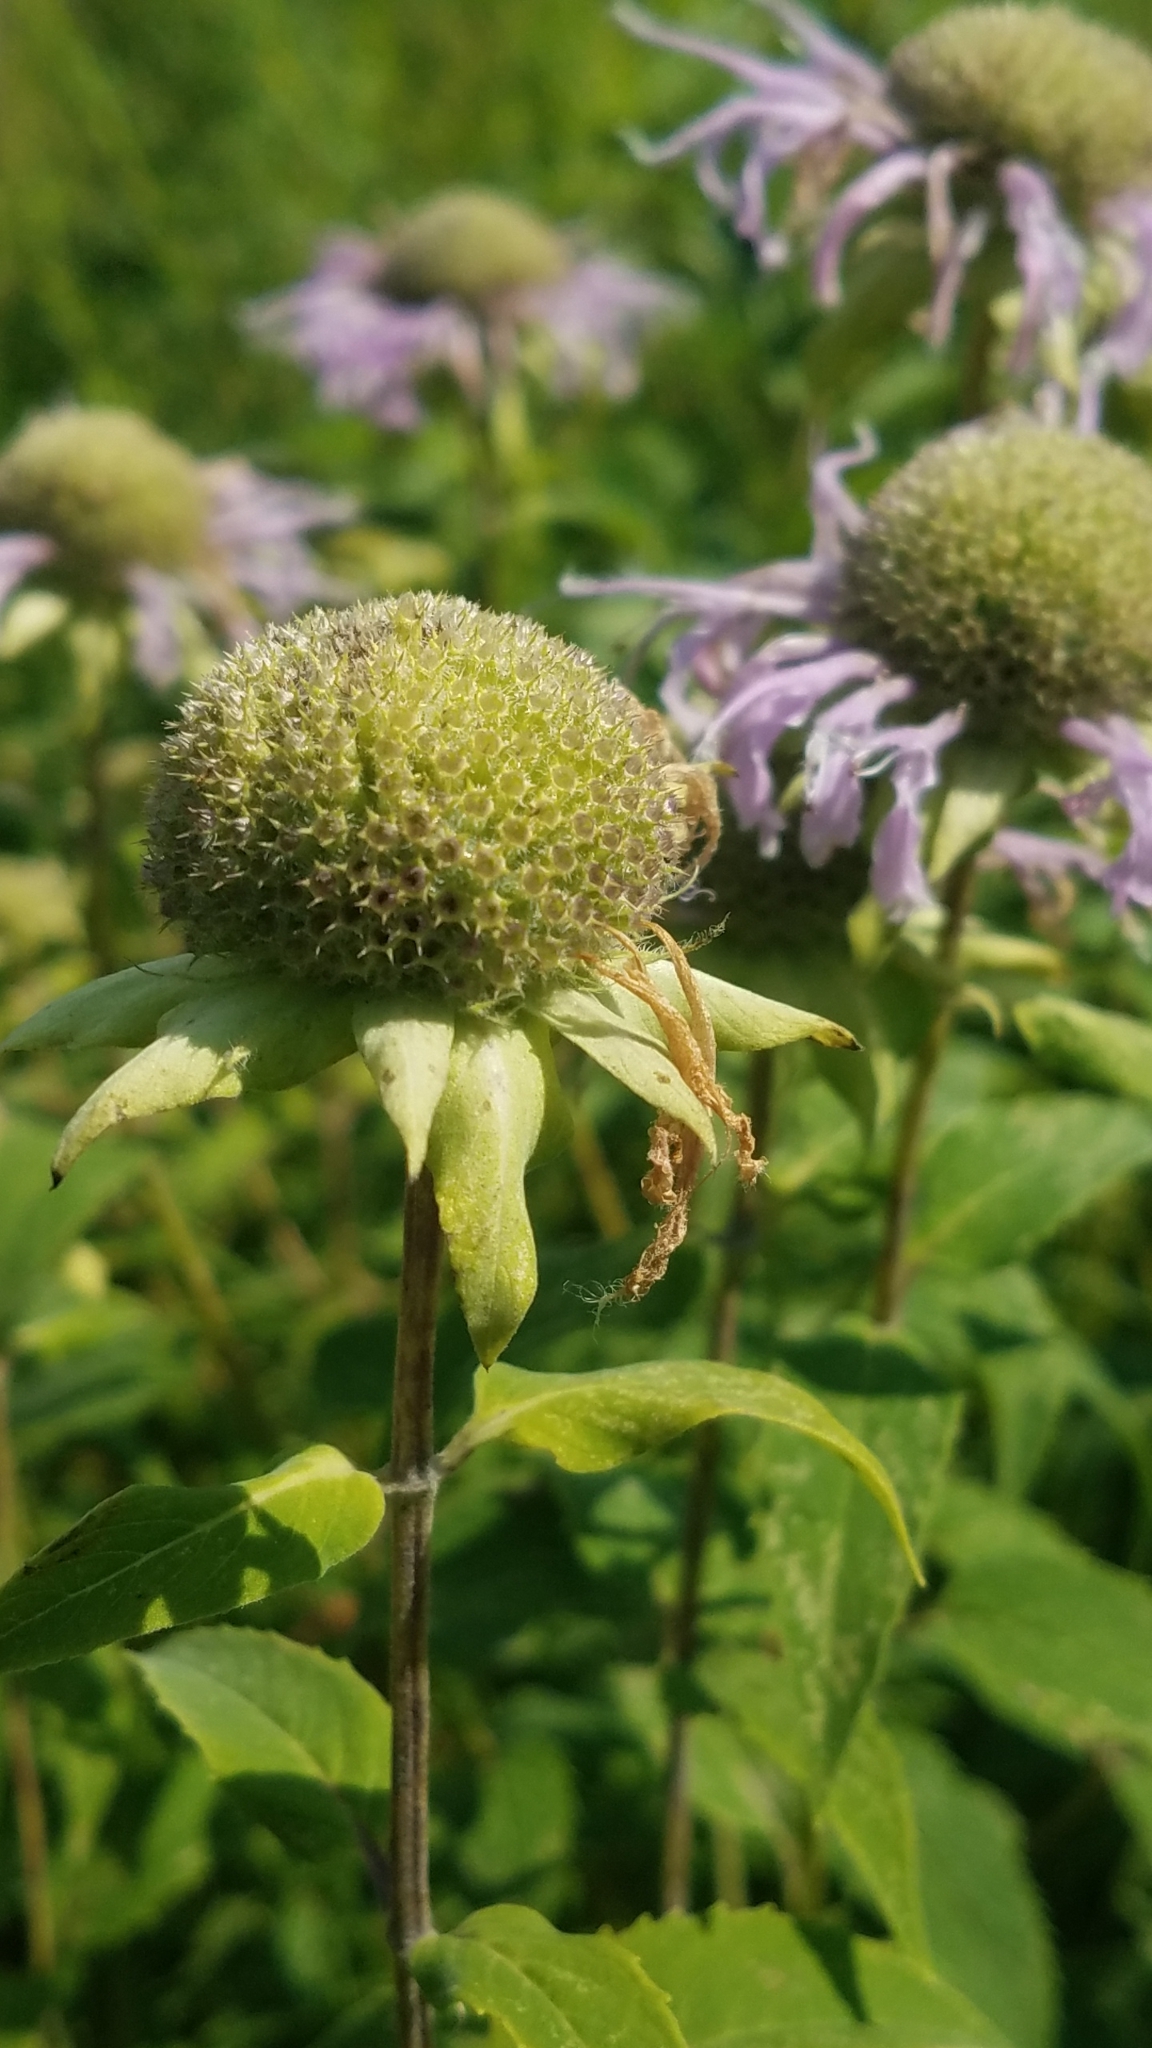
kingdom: Plantae
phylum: Tracheophyta
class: Magnoliopsida
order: Lamiales
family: Lamiaceae
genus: Monarda
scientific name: Monarda fistulosa
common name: Purple beebalm
